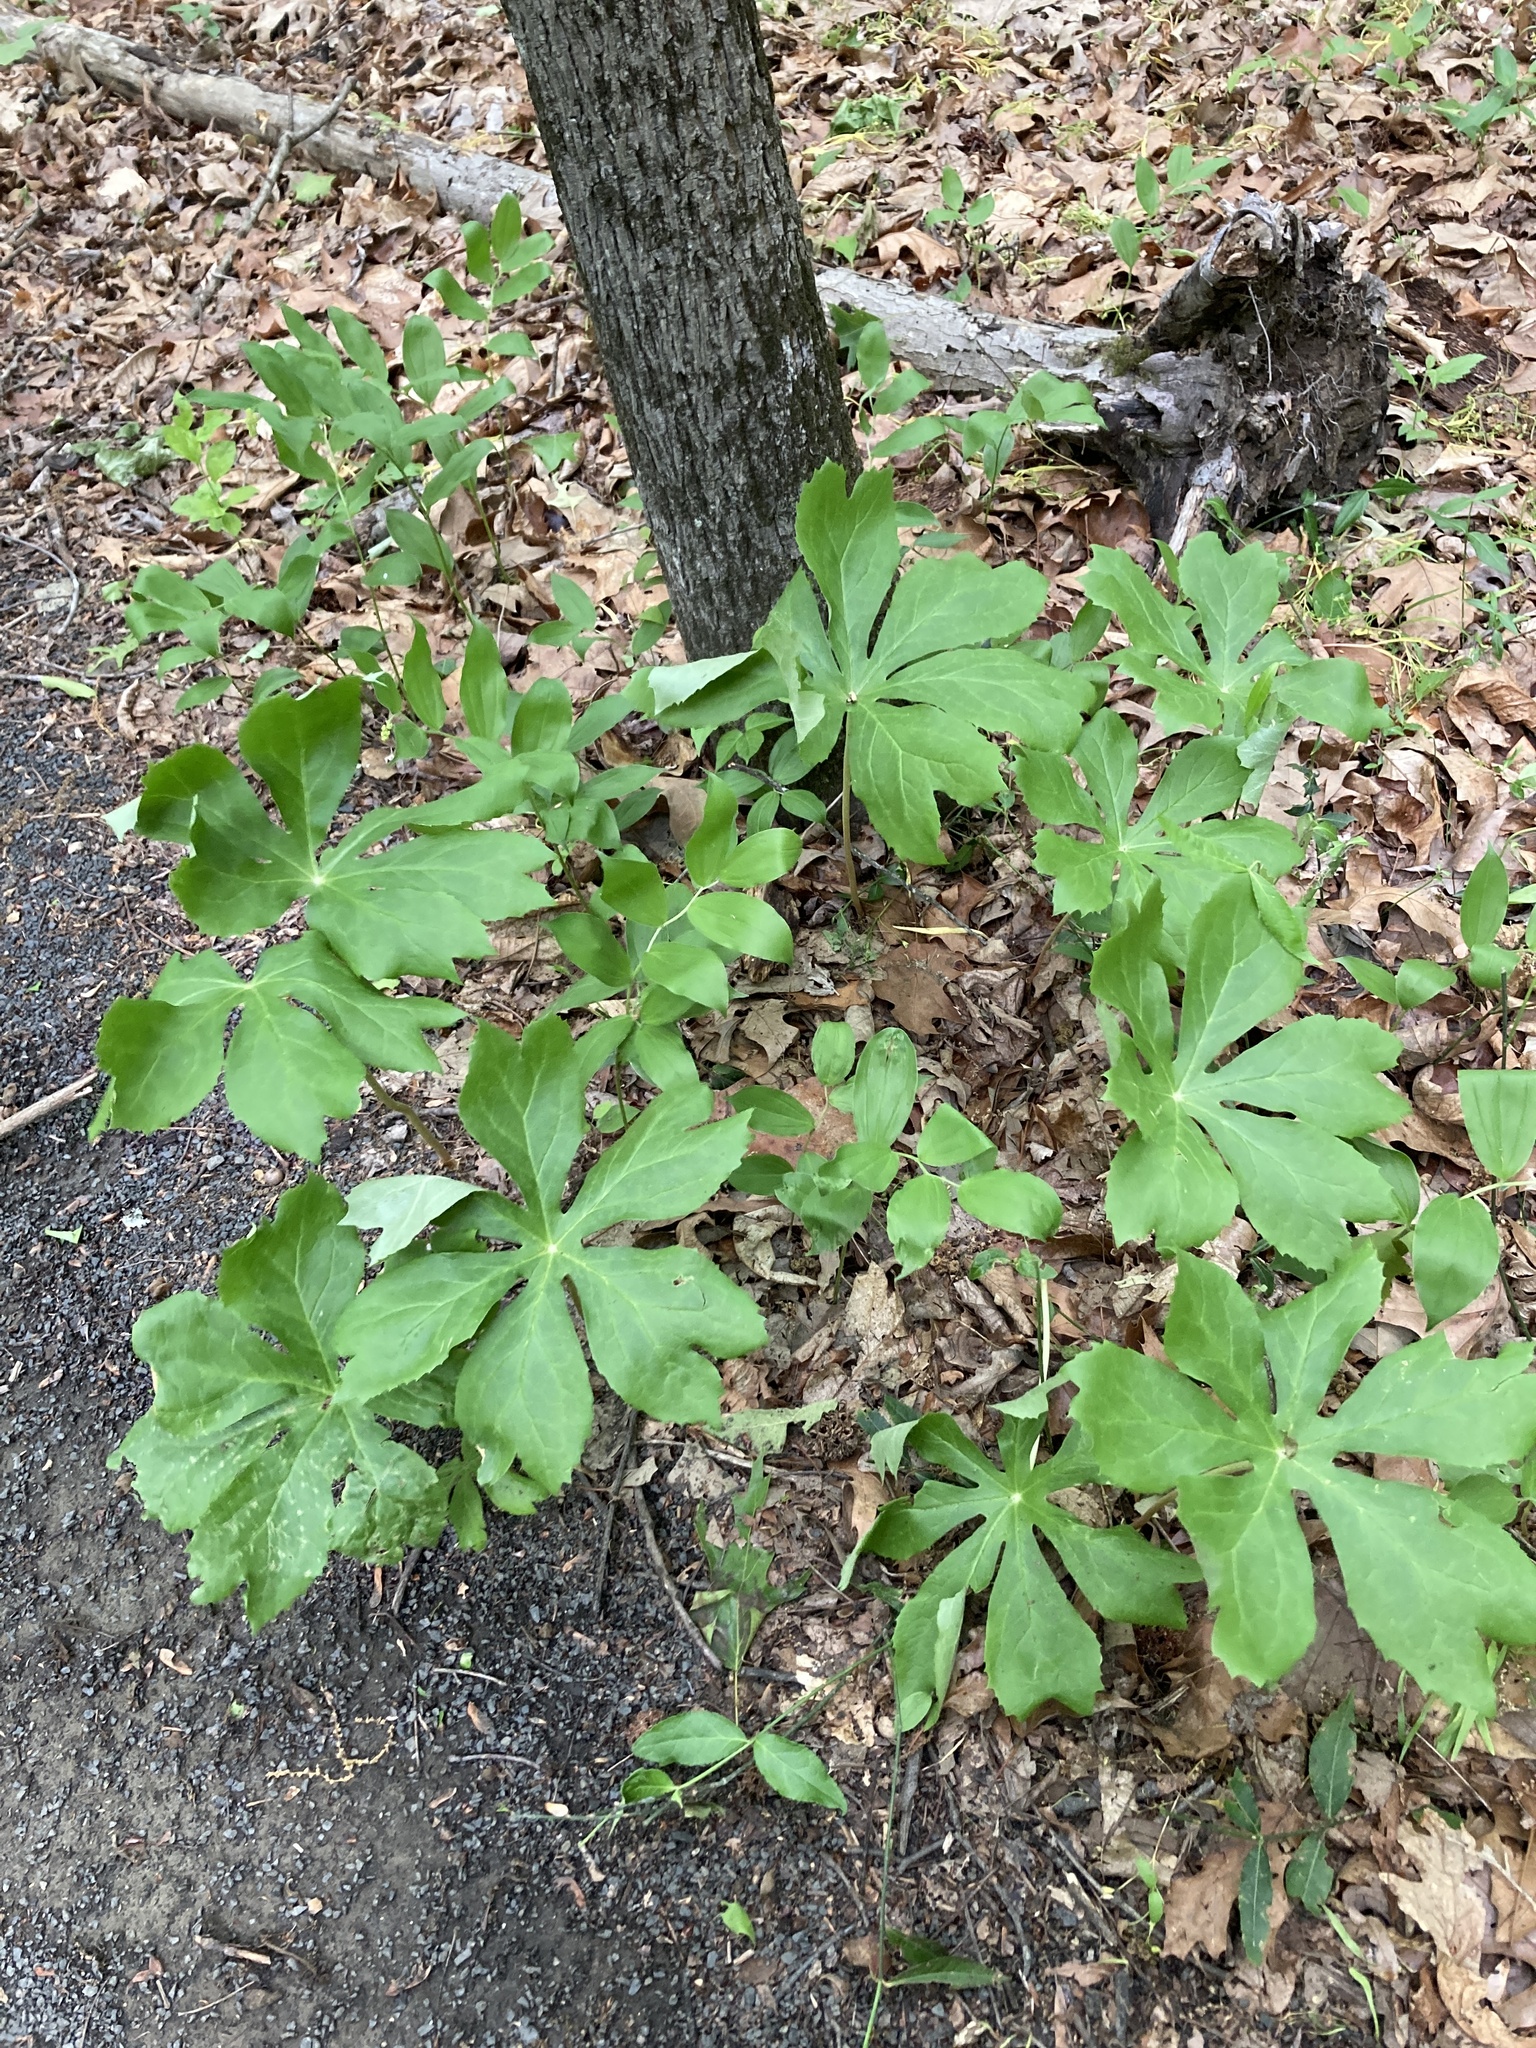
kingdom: Plantae
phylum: Tracheophyta
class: Magnoliopsida
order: Ranunculales
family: Berberidaceae
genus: Podophyllum
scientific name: Podophyllum peltatum
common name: Wild mandrake
